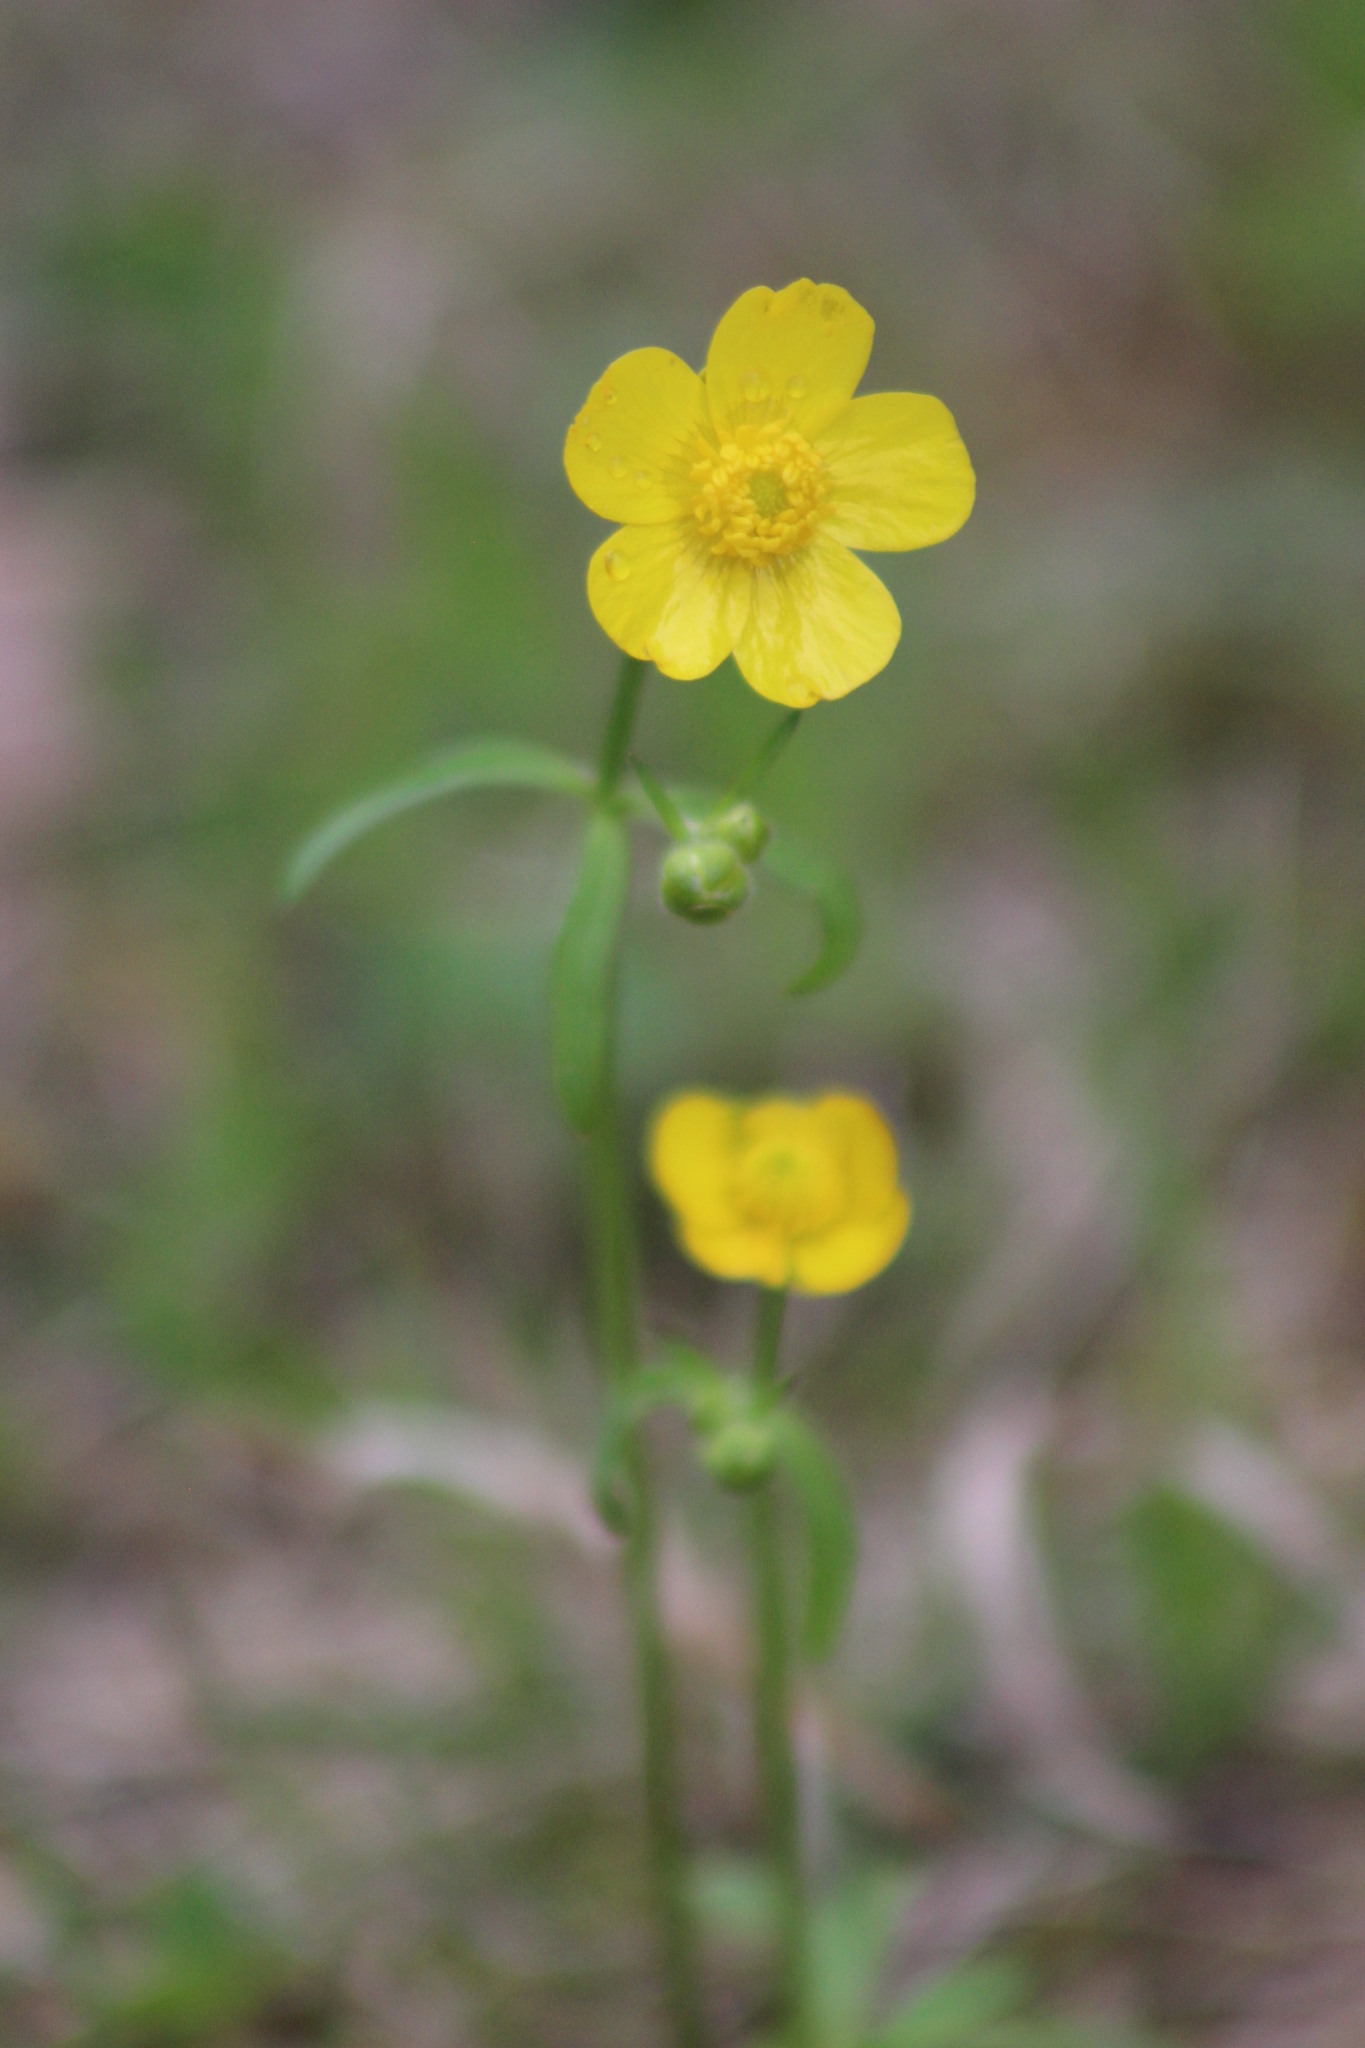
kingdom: Plantae
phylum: Tracheophyta
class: Magnoliopsida
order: Ranunculales
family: Ranunculaceae
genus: Ranunculus
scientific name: Ranunculus propinquus
